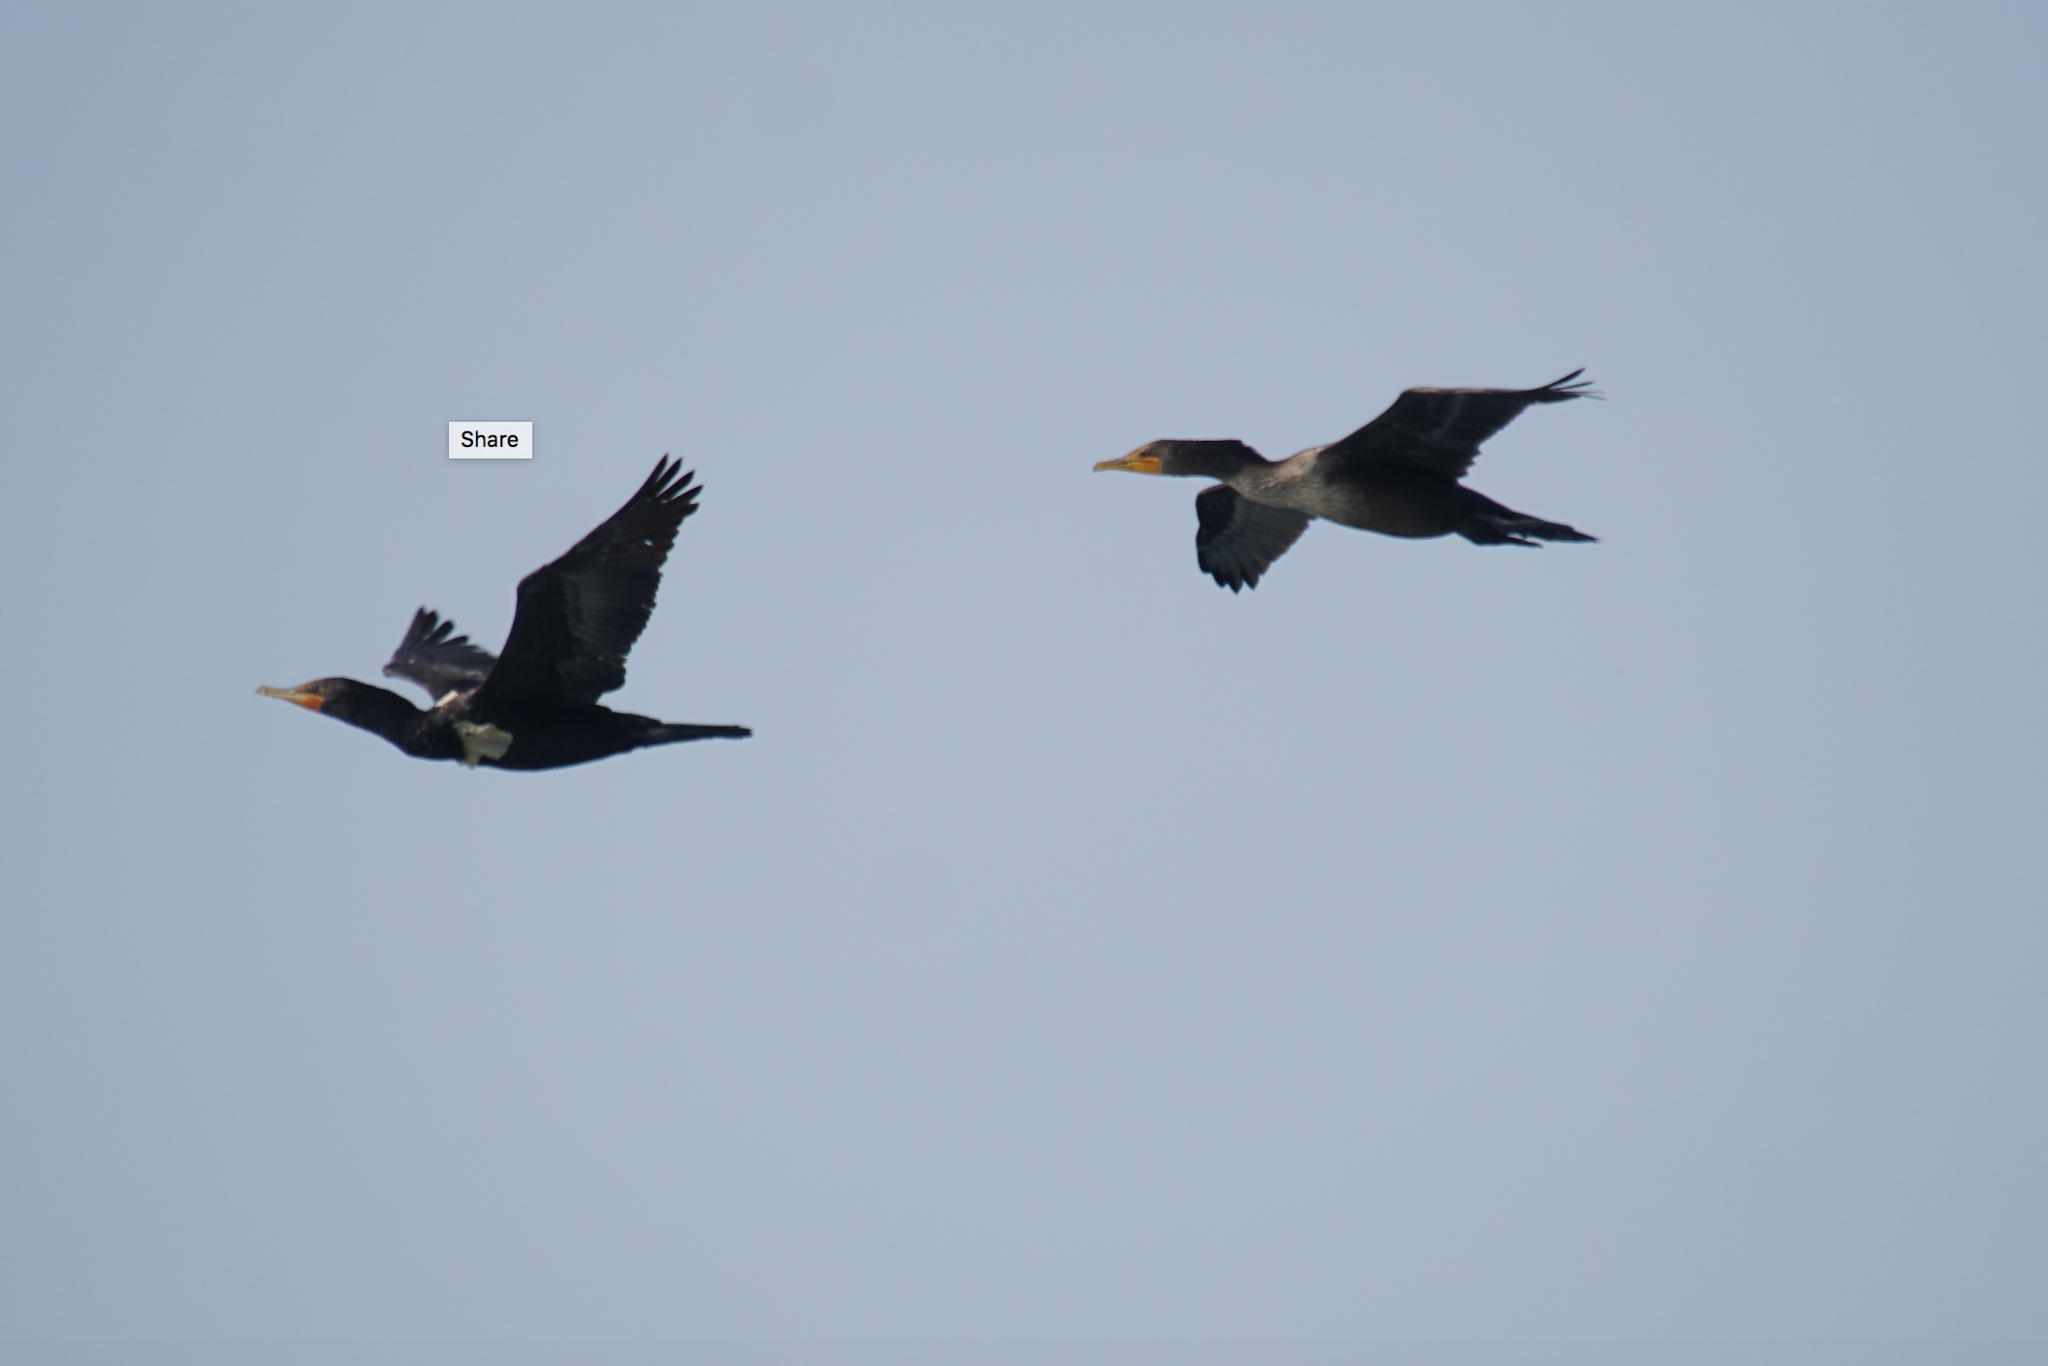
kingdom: Animalia
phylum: Chordata
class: Aves
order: Suliformes
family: Phalacrocoracidae
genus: Phalacrocorax
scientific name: Phalacrocorax auritus
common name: Double-crested cormorant
